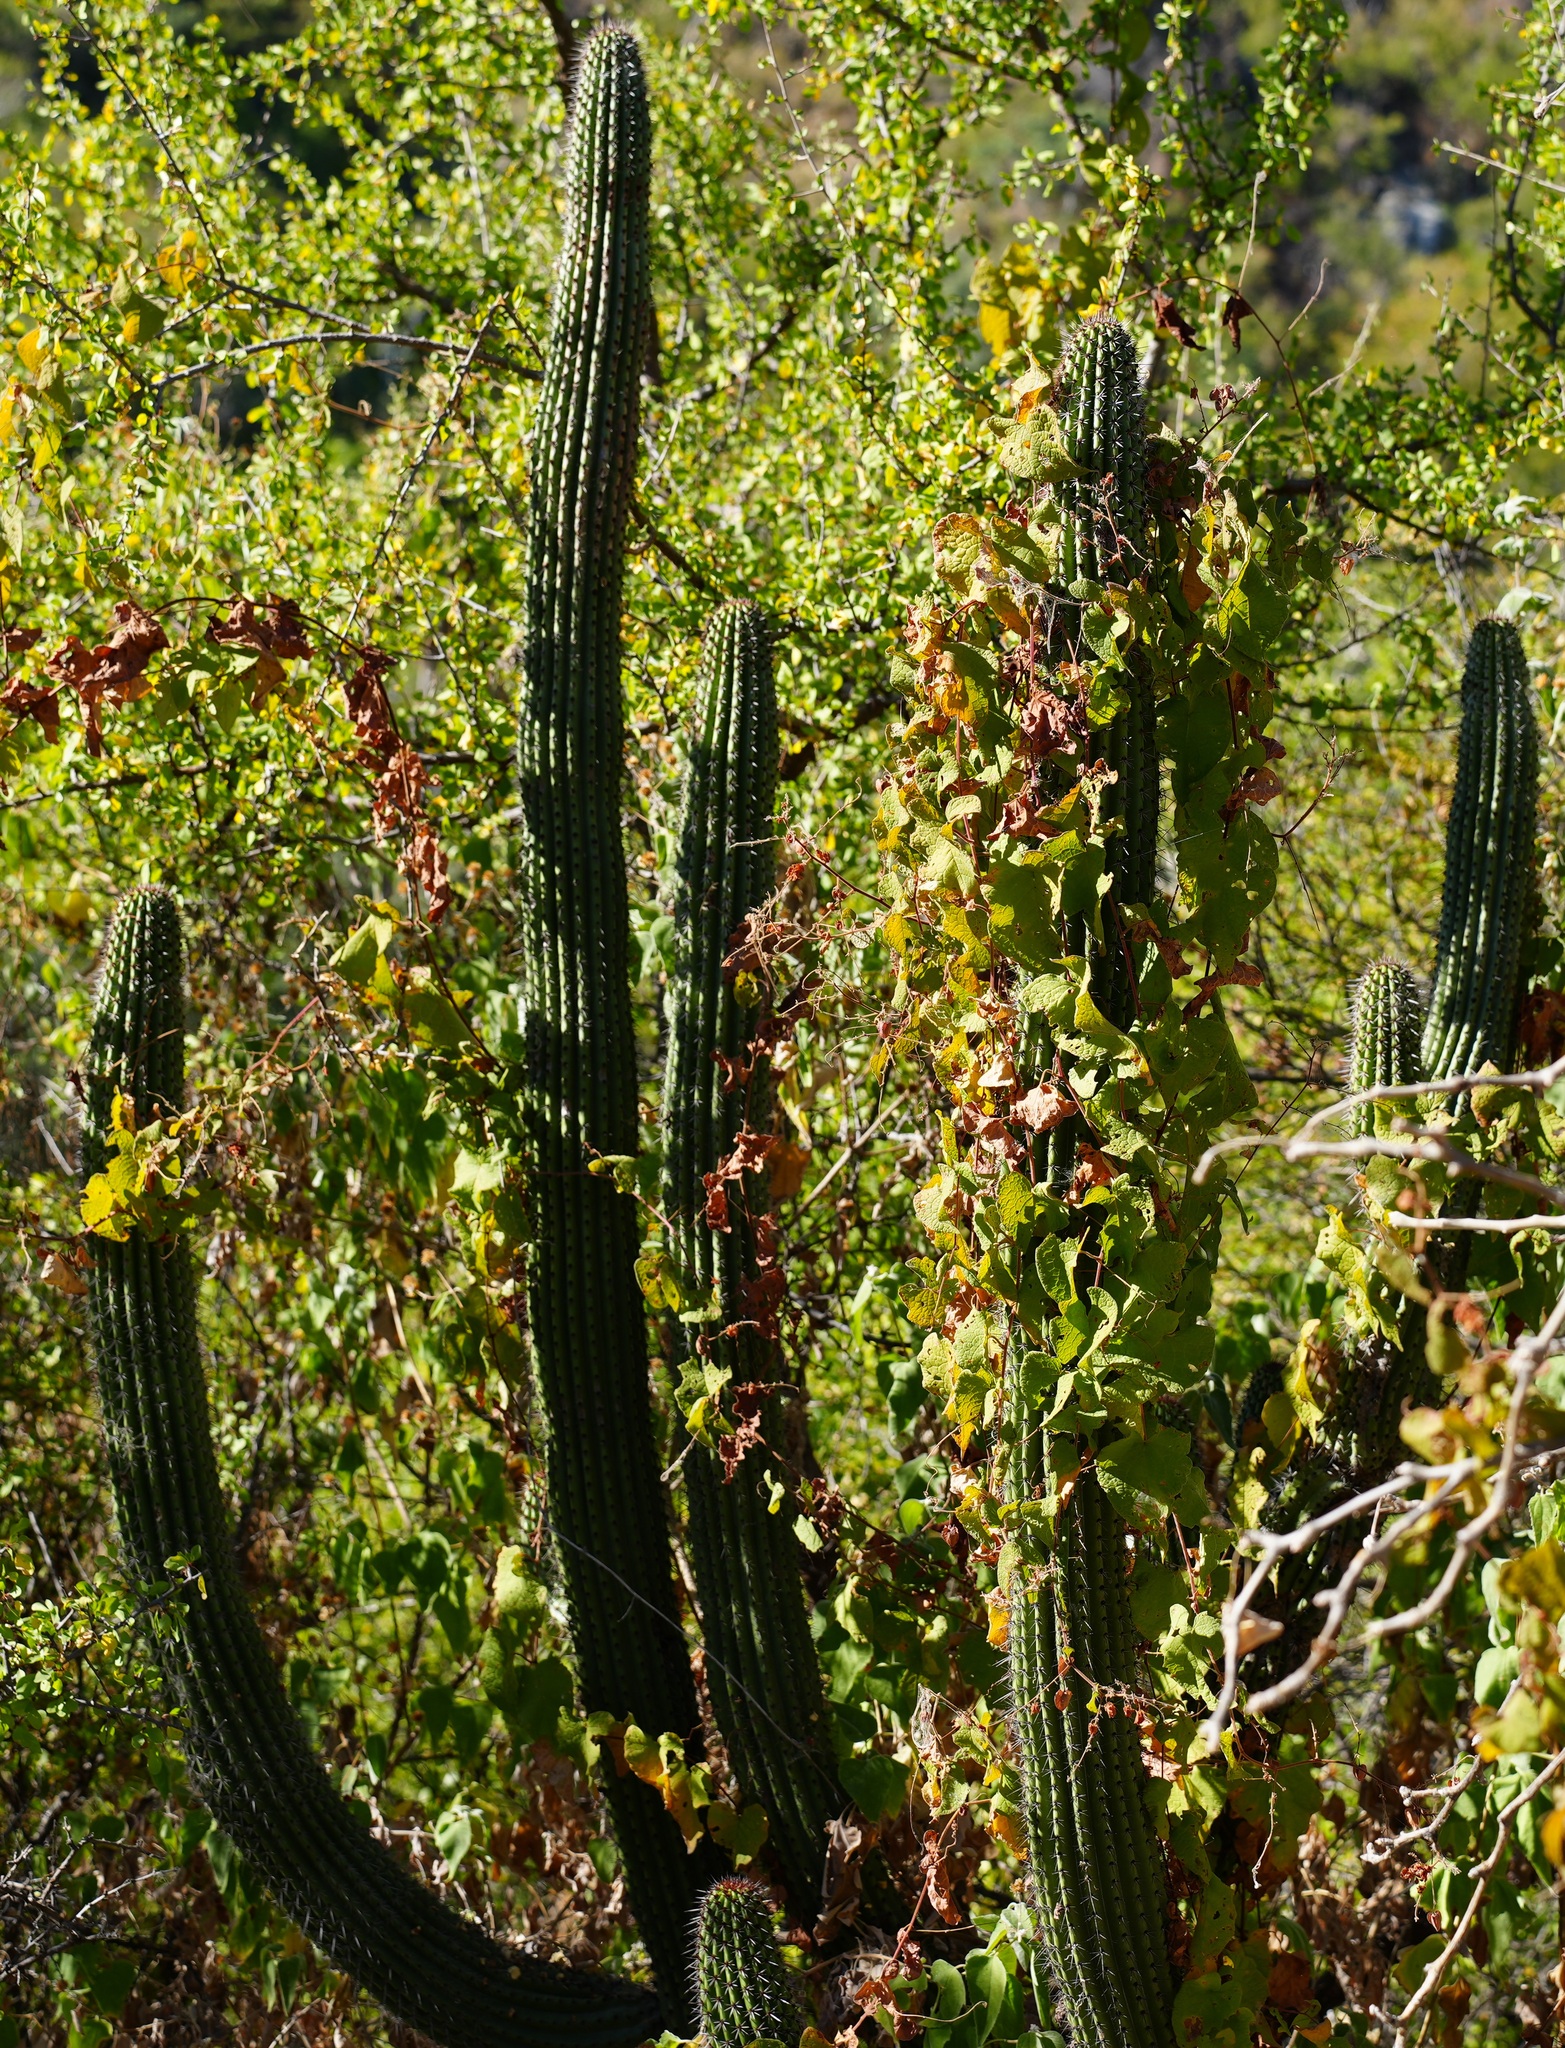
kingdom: Plantae
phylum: Tracheophyta
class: Magnoliopsida
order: Caryophyllales
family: Cactaceae
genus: Stenocereus
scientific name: Stenocereus thurberi
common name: Organ pipe cactus
